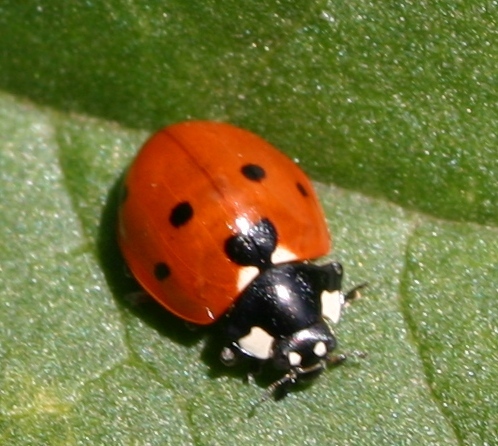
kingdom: Animalia
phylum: Arthropoda
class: Insecta
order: Coleoptera
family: Coccinellidae
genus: Coccinella
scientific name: Coccinella septempunctata
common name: Sevenspotted lady beetle
